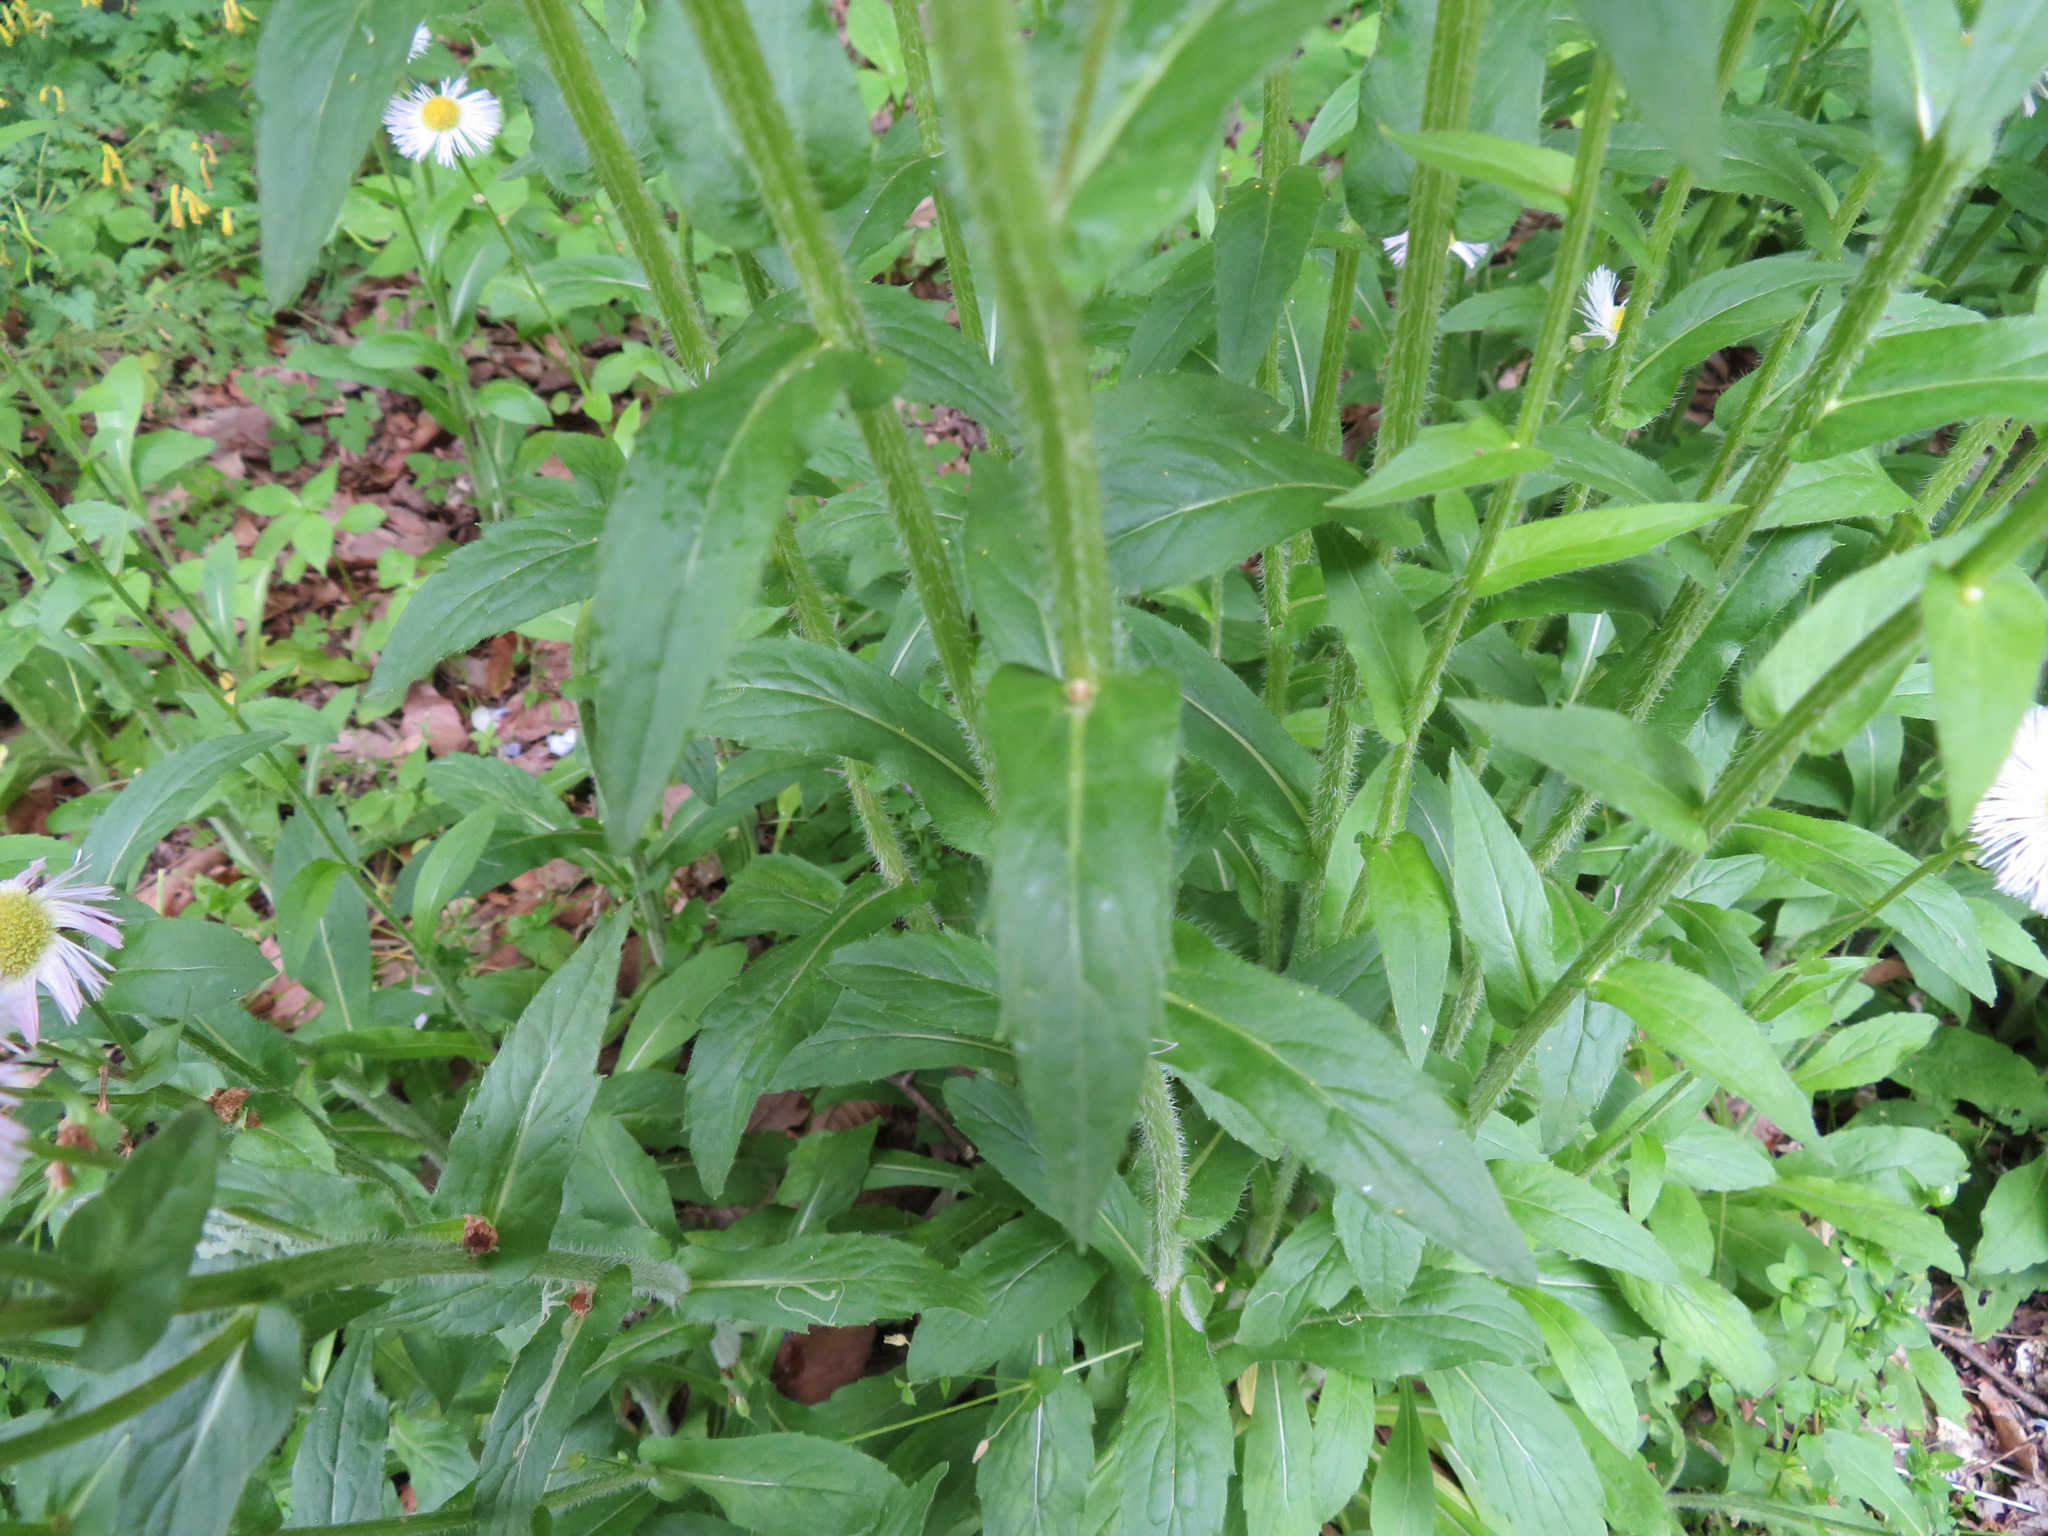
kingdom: Plantae
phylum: Tracheophyta
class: Magnoliopsida
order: Asterales
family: Asteraceae
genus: Erigeron
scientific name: Erigeron philadelphicus
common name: Robin's-plantain
